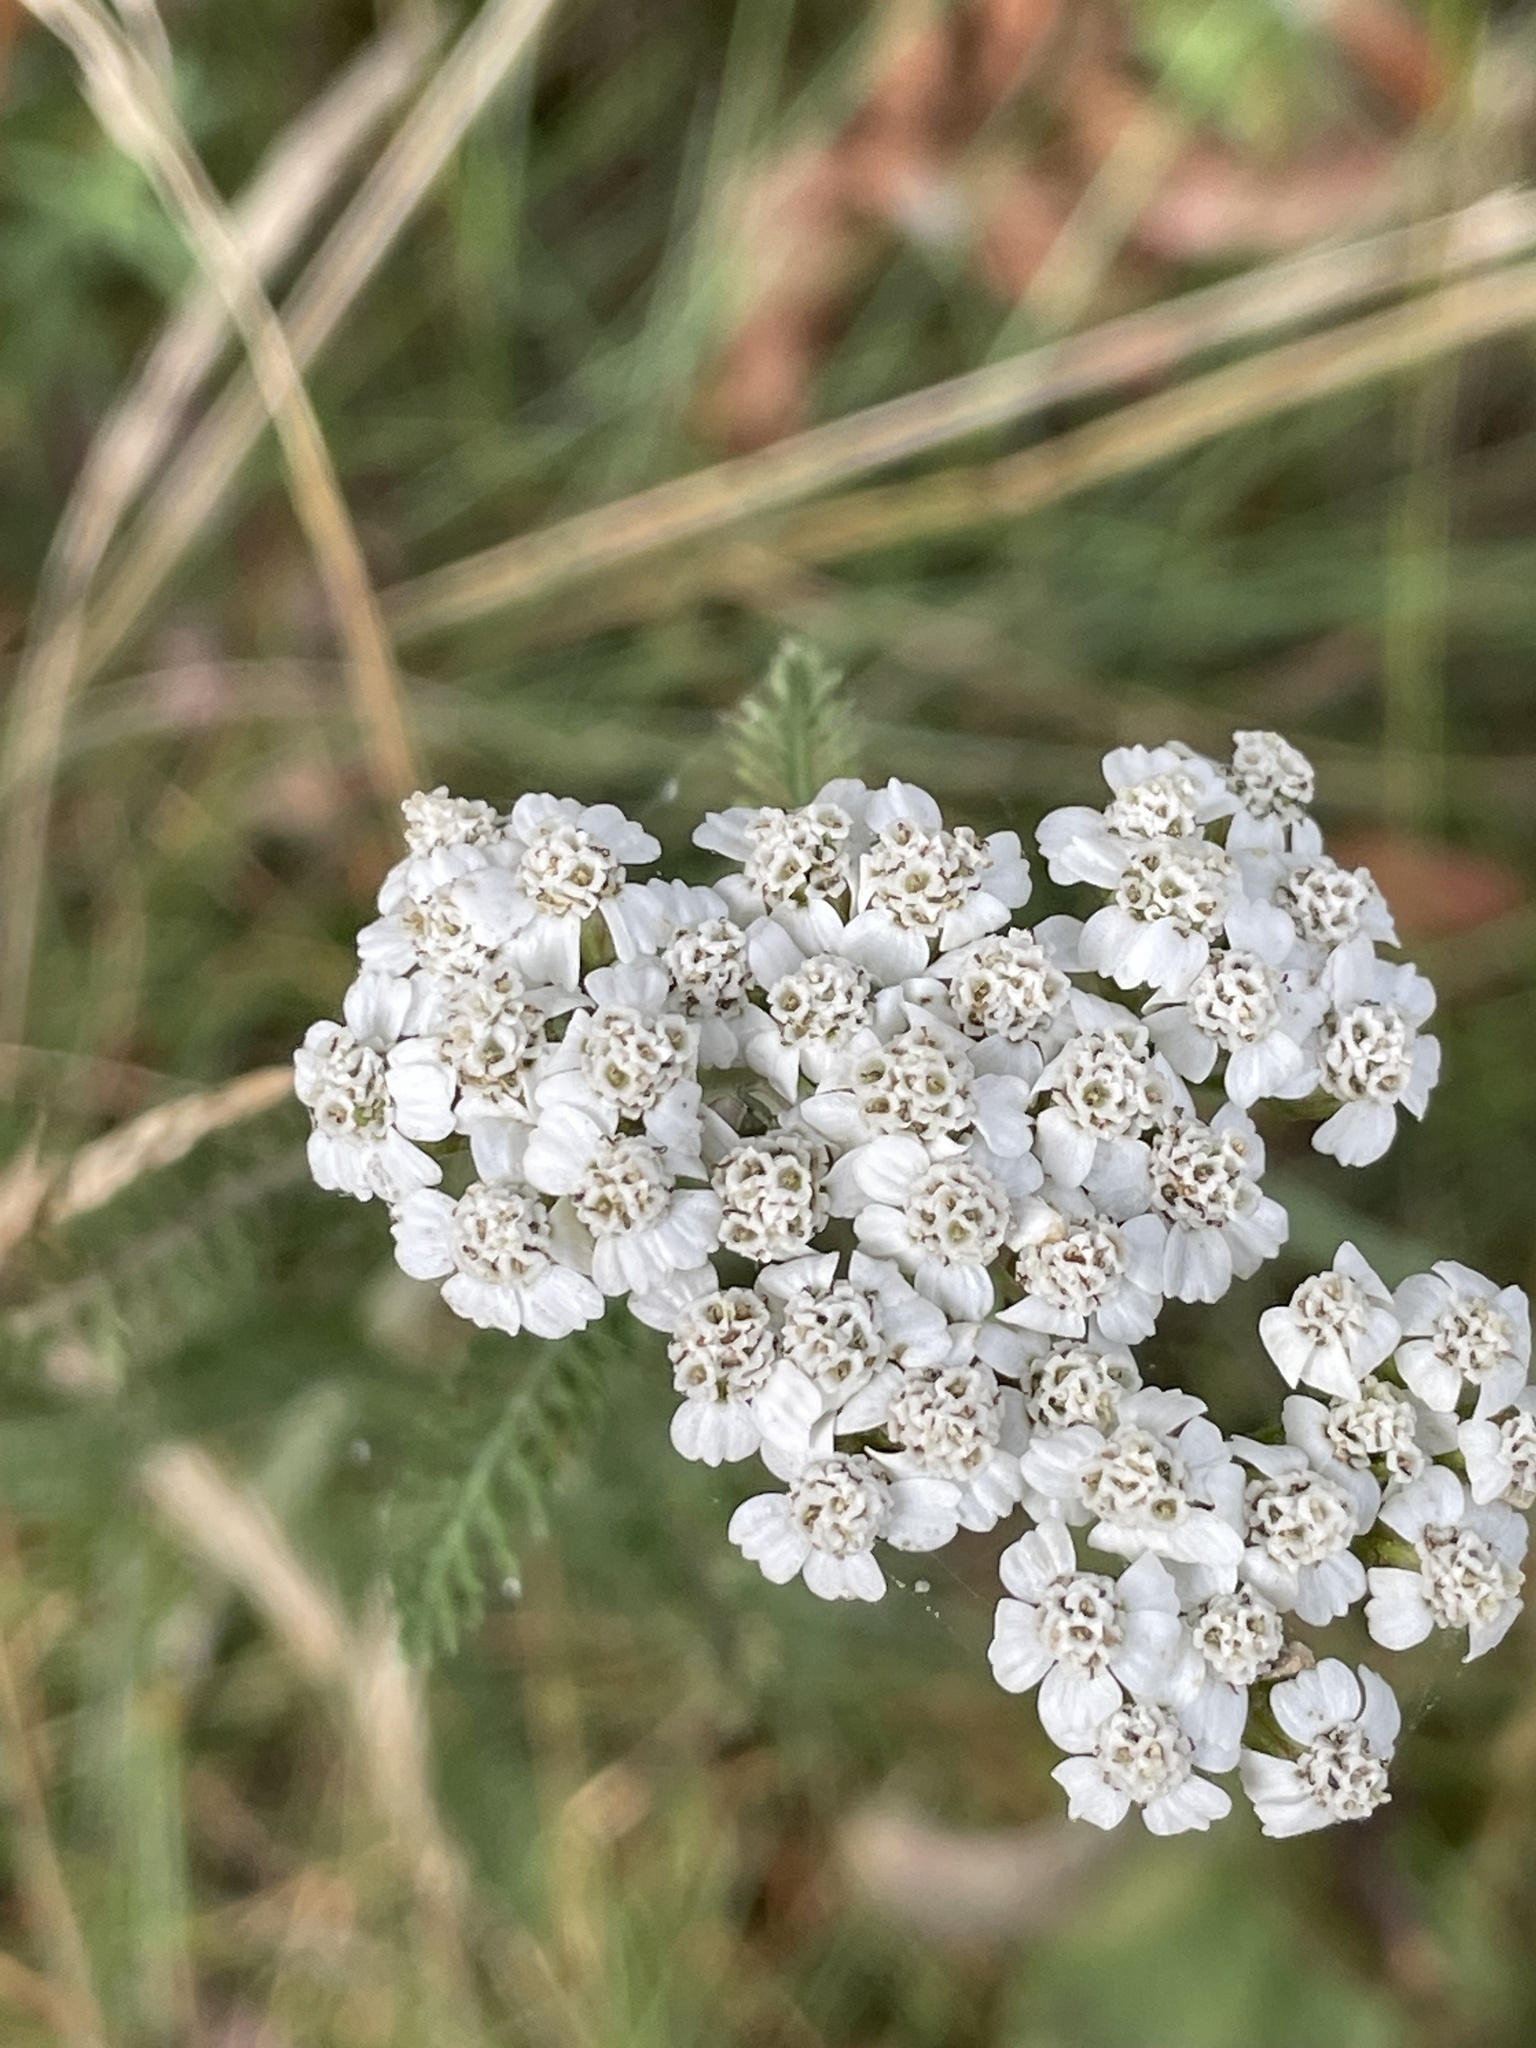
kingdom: Plantae
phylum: Tracheophyta
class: Magnoliopsida
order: Asterales
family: Asteraceae
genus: Achillea
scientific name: Achillea millefolium
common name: Yarrow
